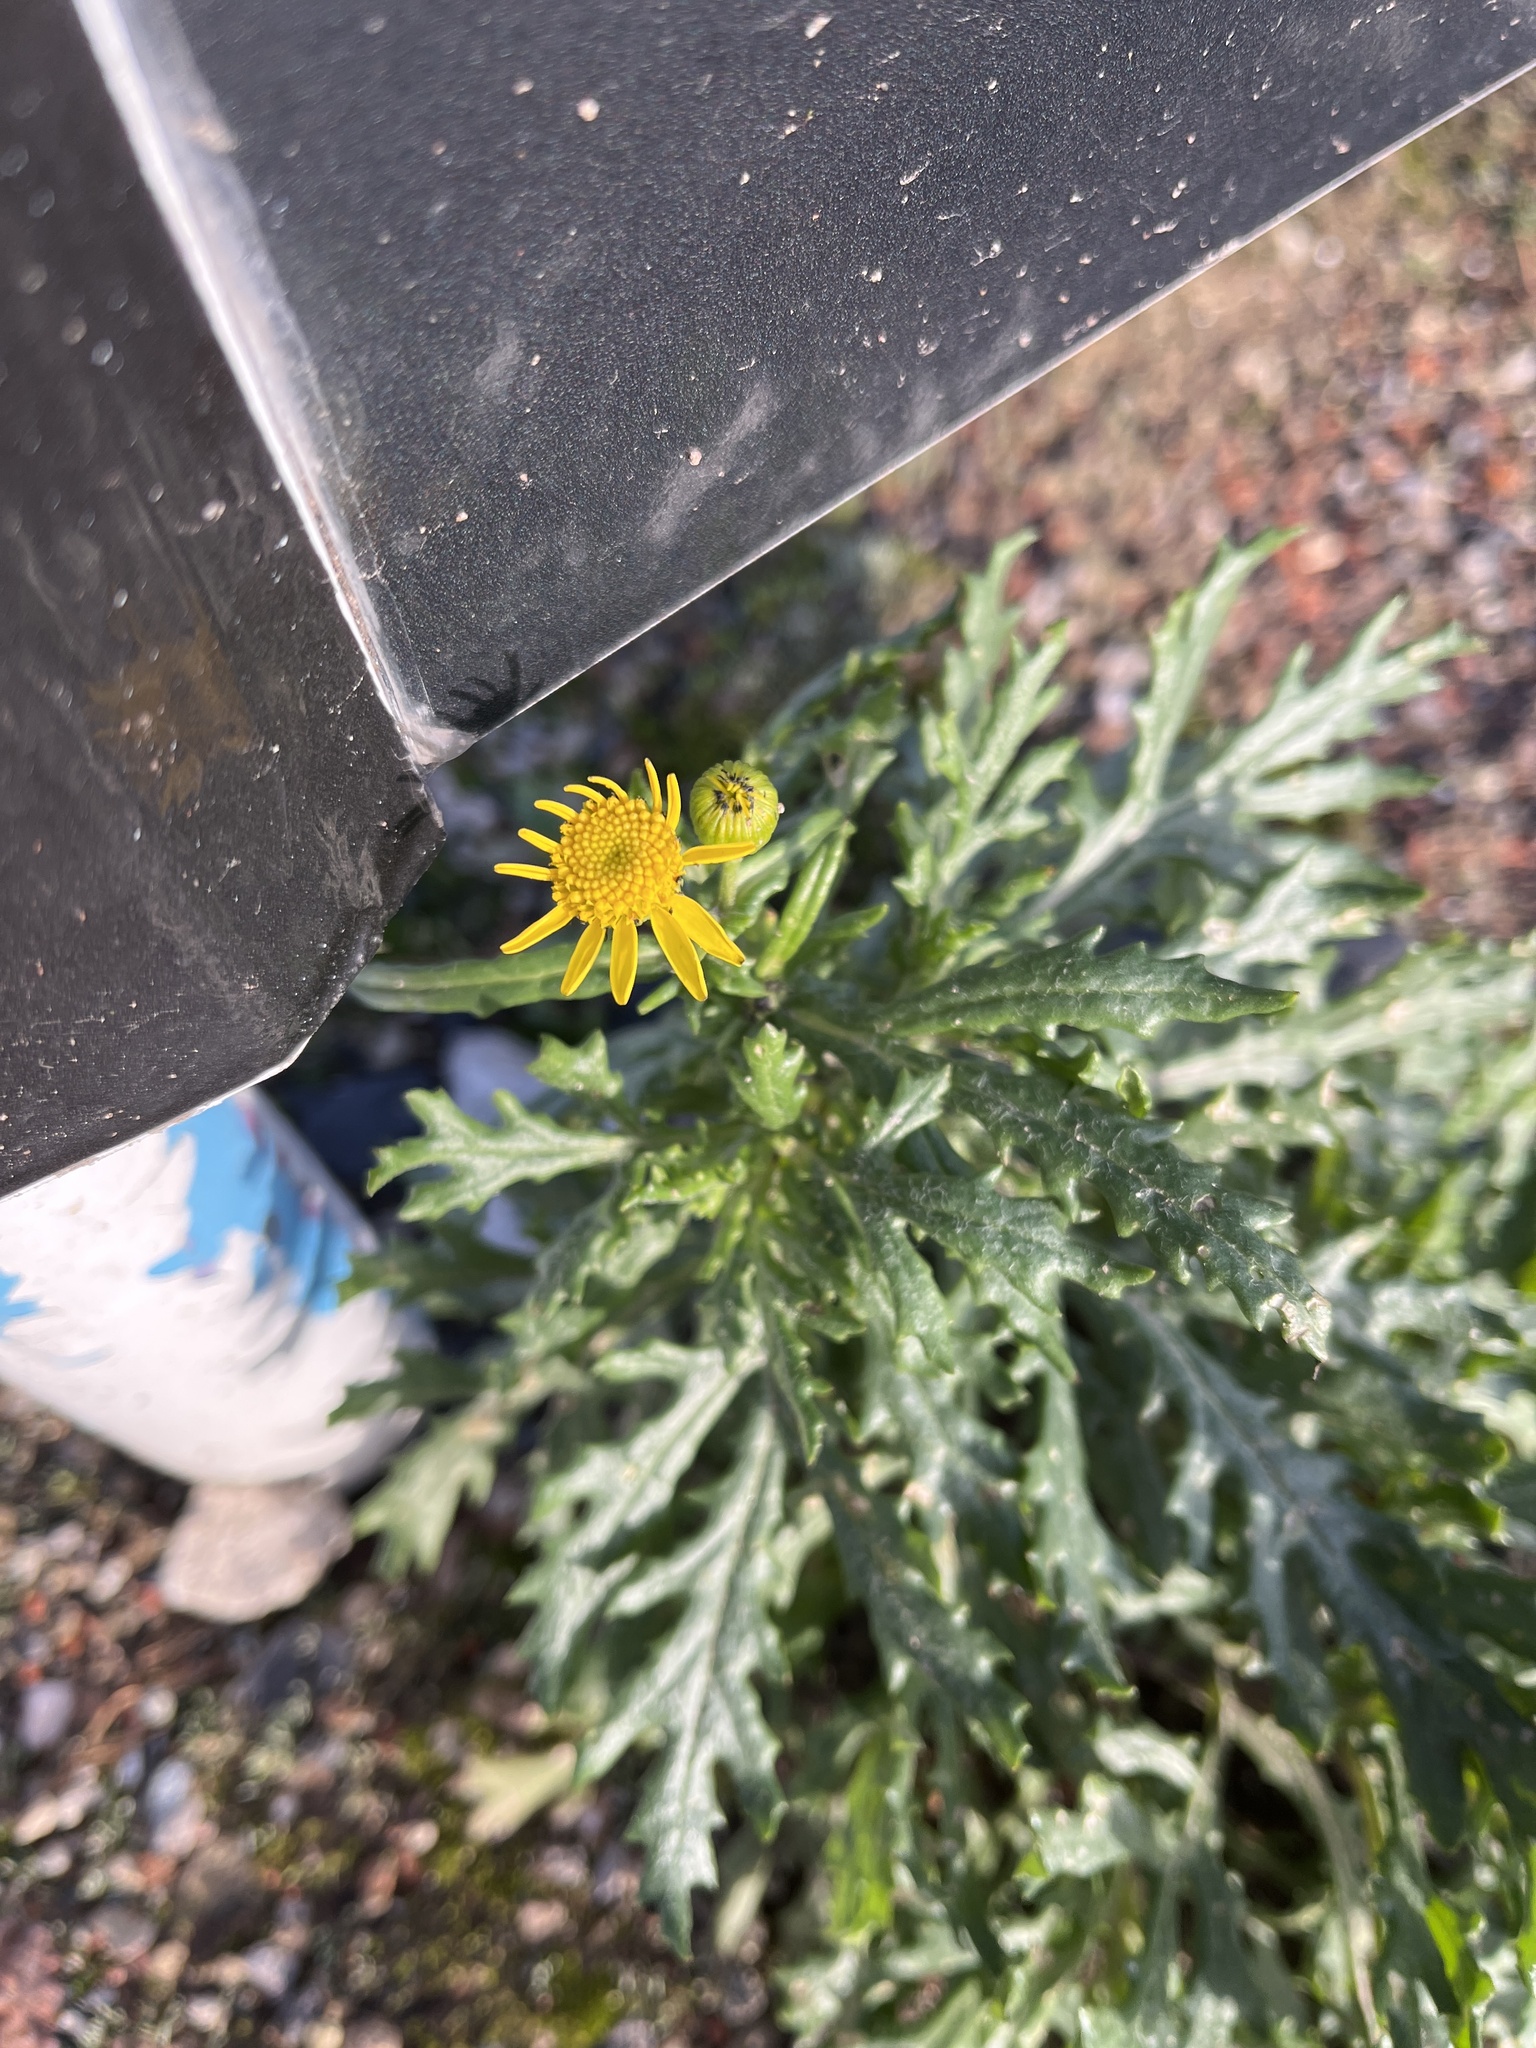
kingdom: Plantae
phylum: Tracheophyta
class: Magnoliopsida
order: Asterales
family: Asteraceae
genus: Senecio
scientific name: Senecio squalidus
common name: Oxford ragwort
